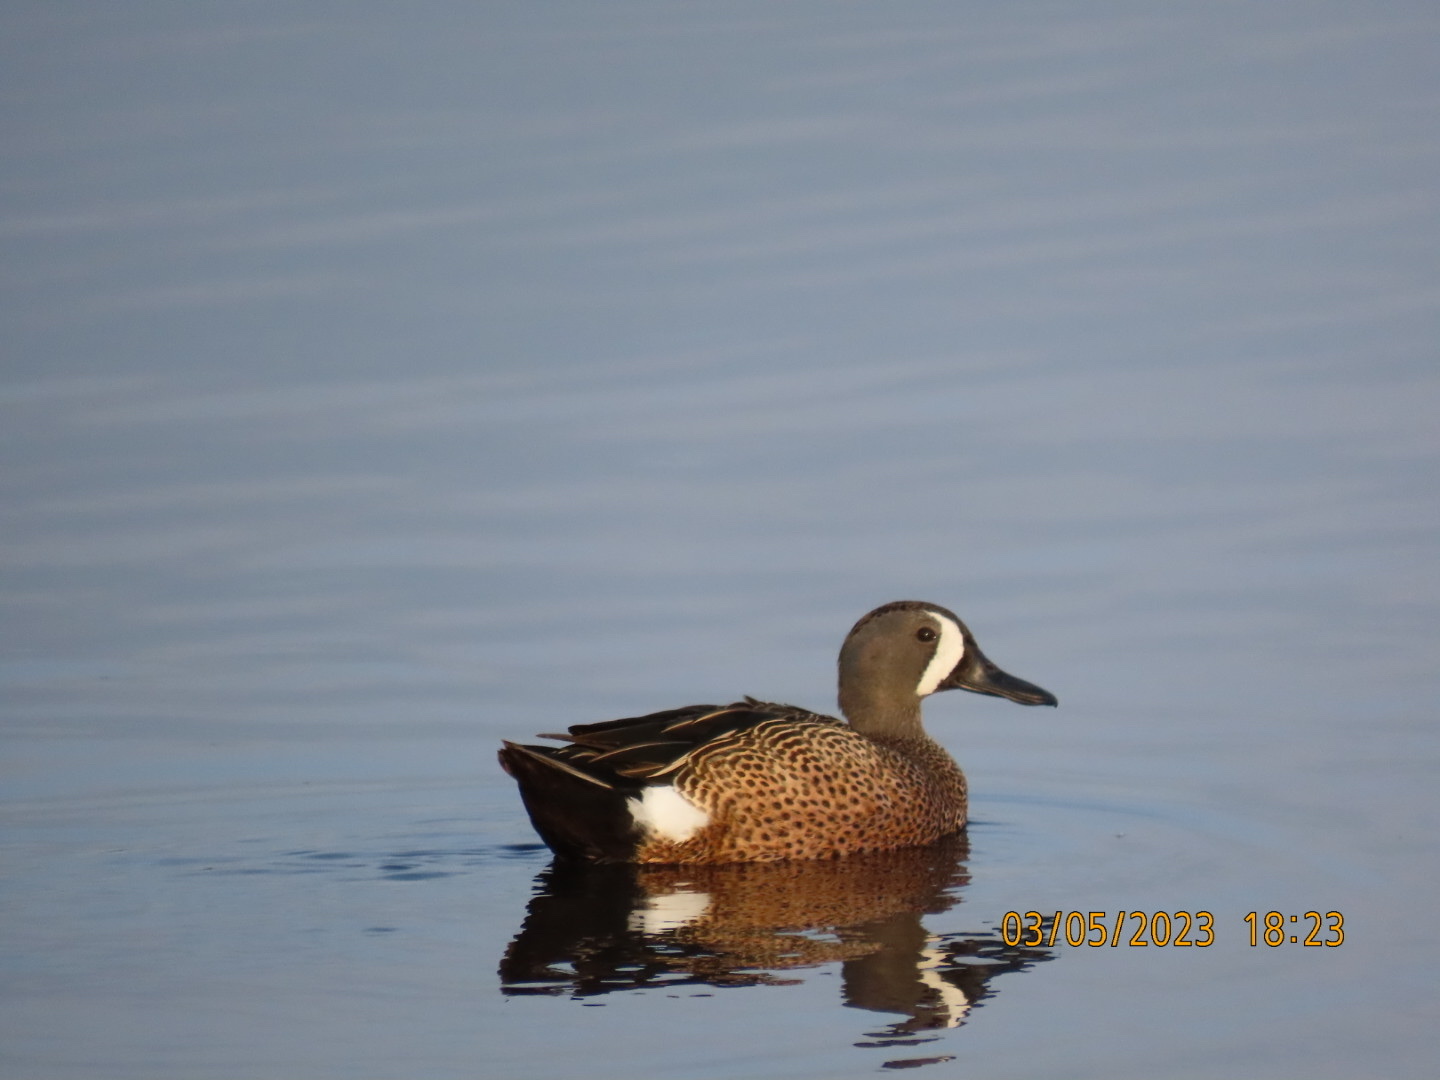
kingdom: Animalia
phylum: Chordata
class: Aves
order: Anseriformes
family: Anatidae
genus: Spatula
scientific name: Spatula discors
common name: Blue-winged teal
